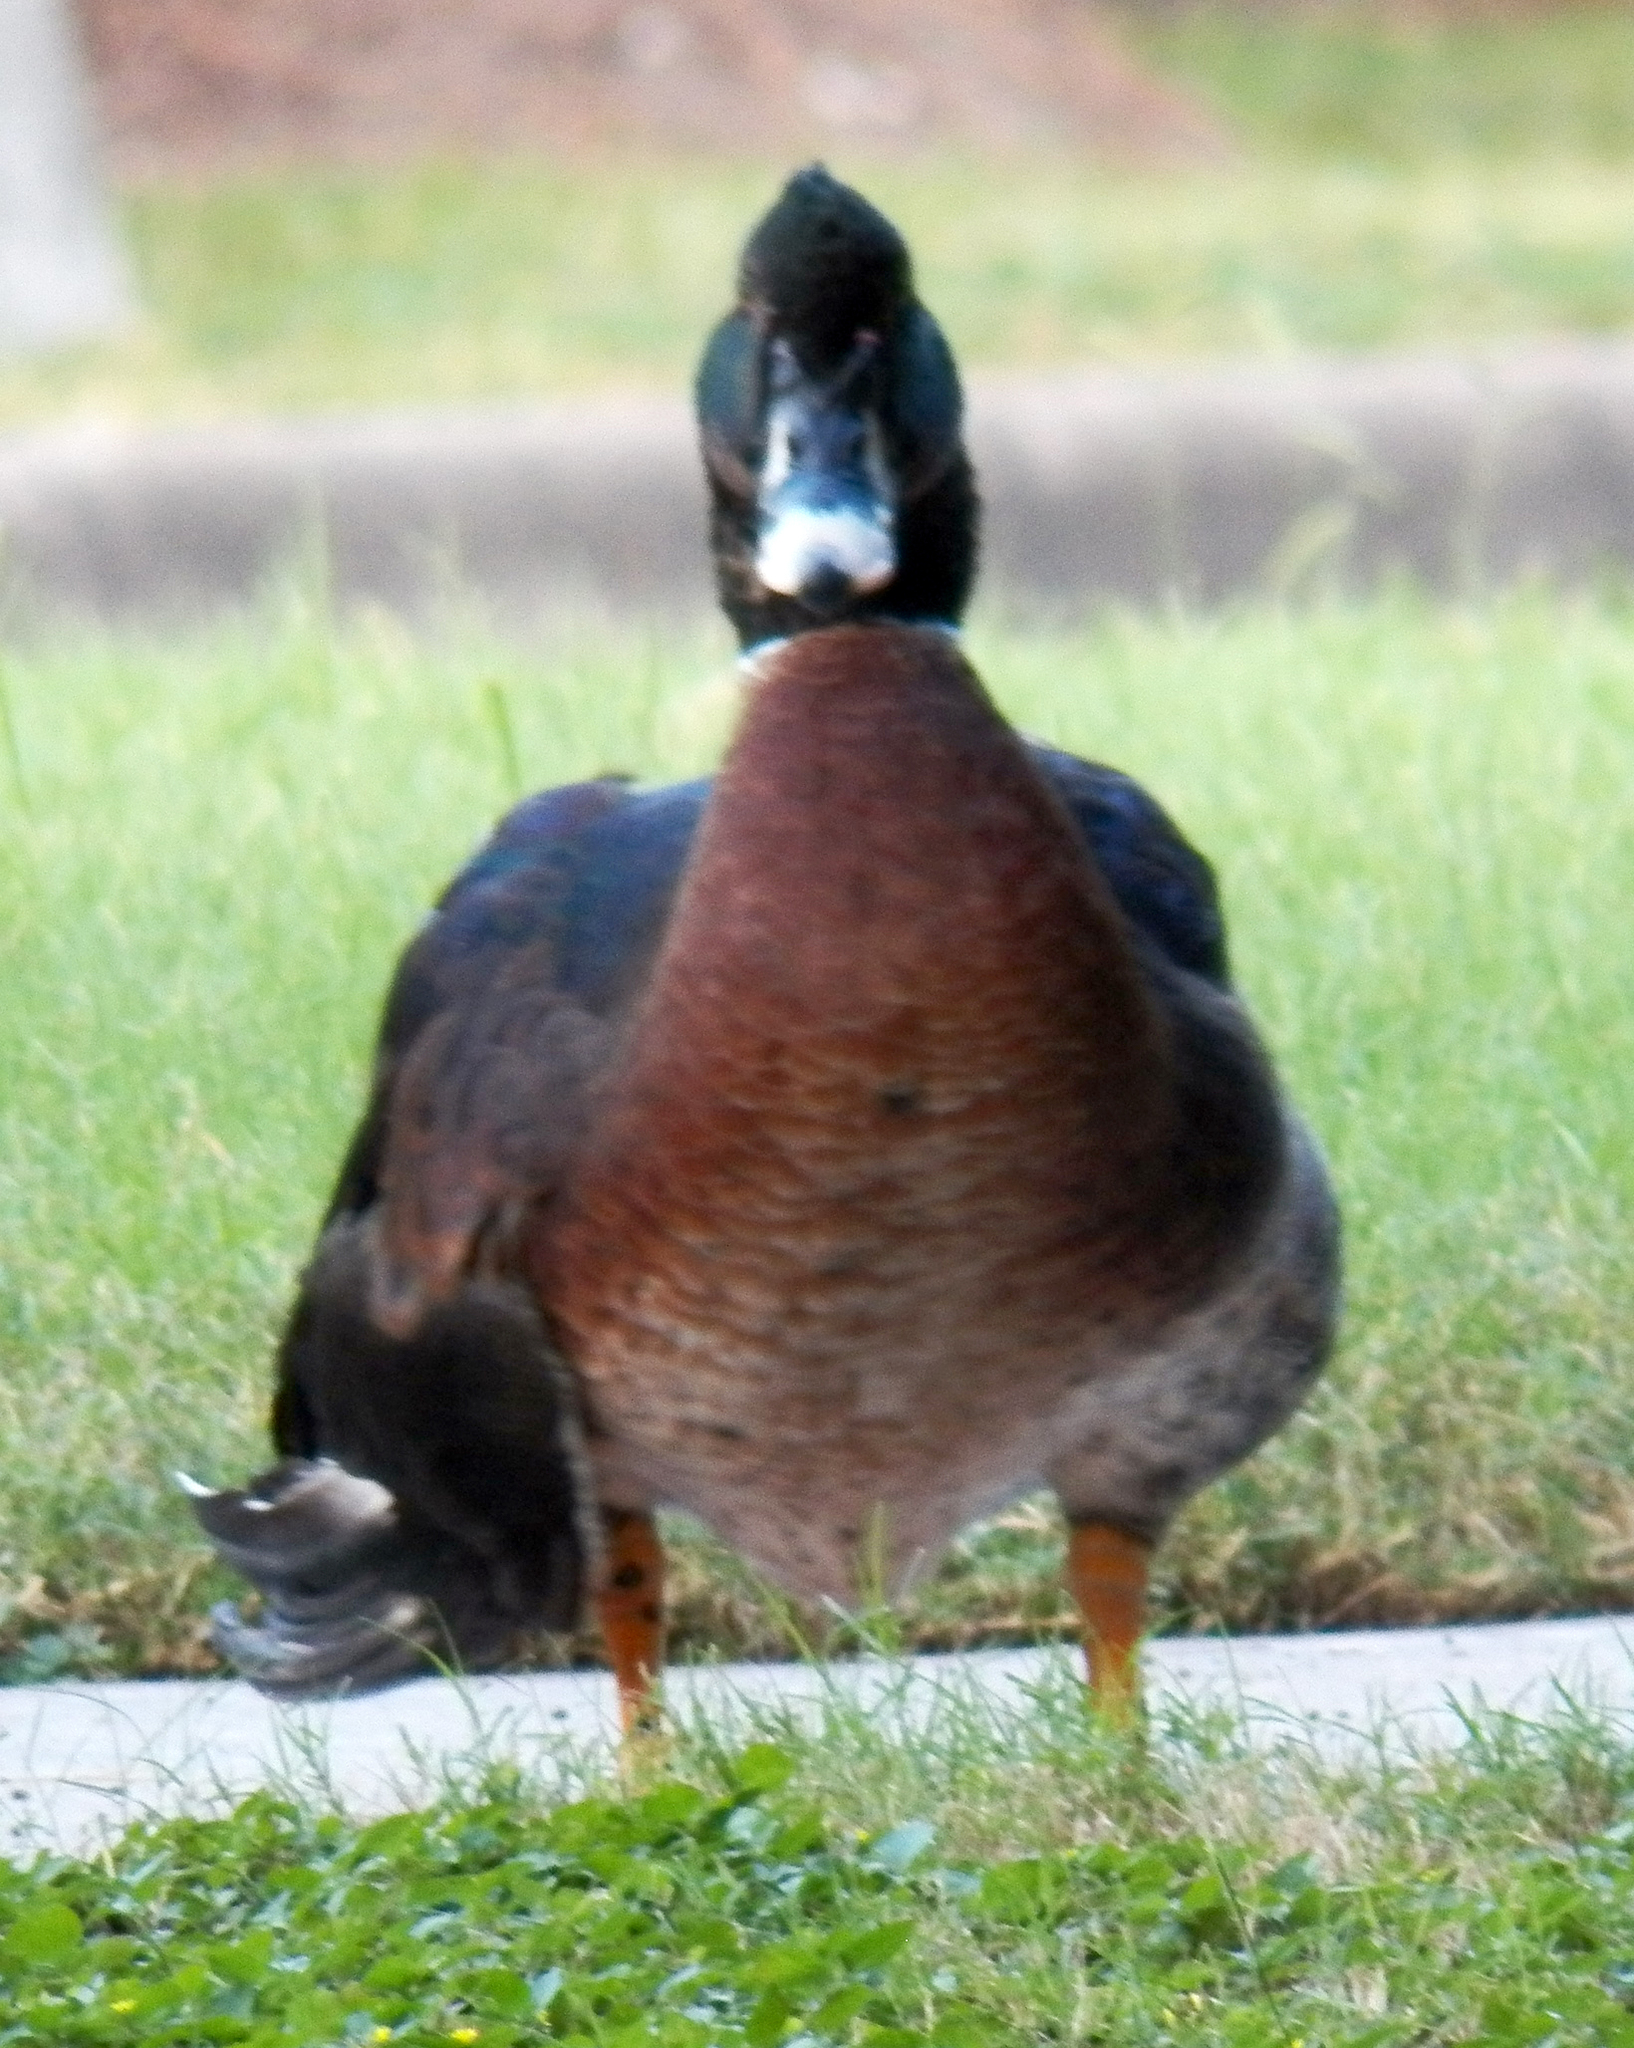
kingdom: Animalia
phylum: Chordata
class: Aves
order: Anseriformes
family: Anatidae
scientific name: Anatidae
